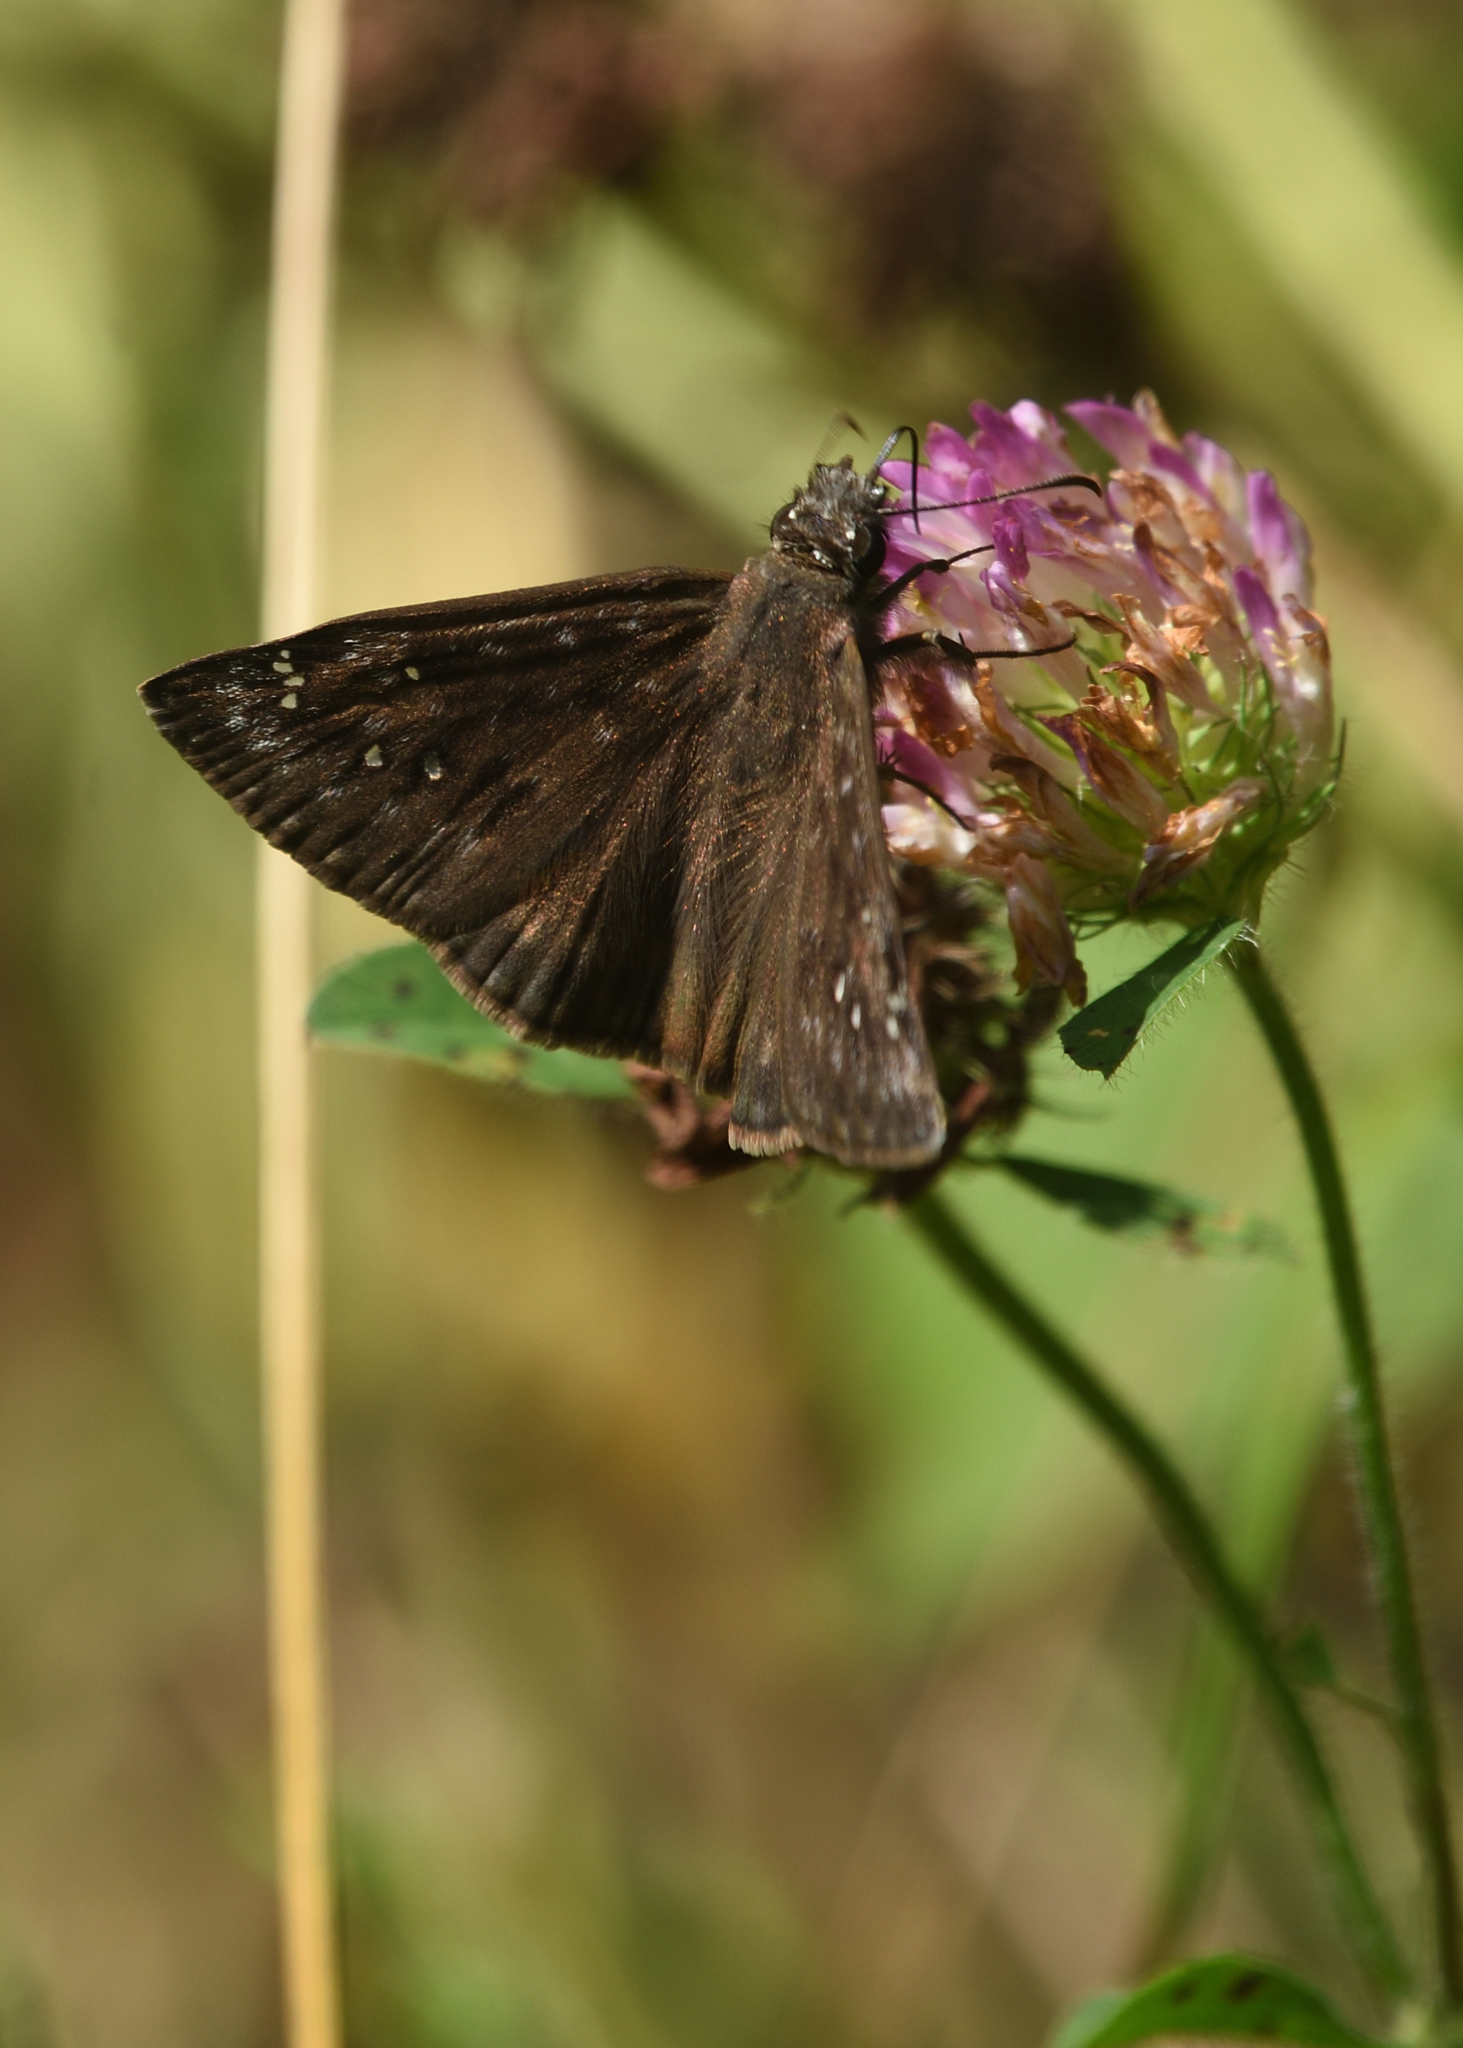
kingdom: Animalia
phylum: Arthropoda
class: Insecta
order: Lepidoptera
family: Hesperiidae
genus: Erynnis
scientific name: Erynnis horatius
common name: Horace's duskywing
